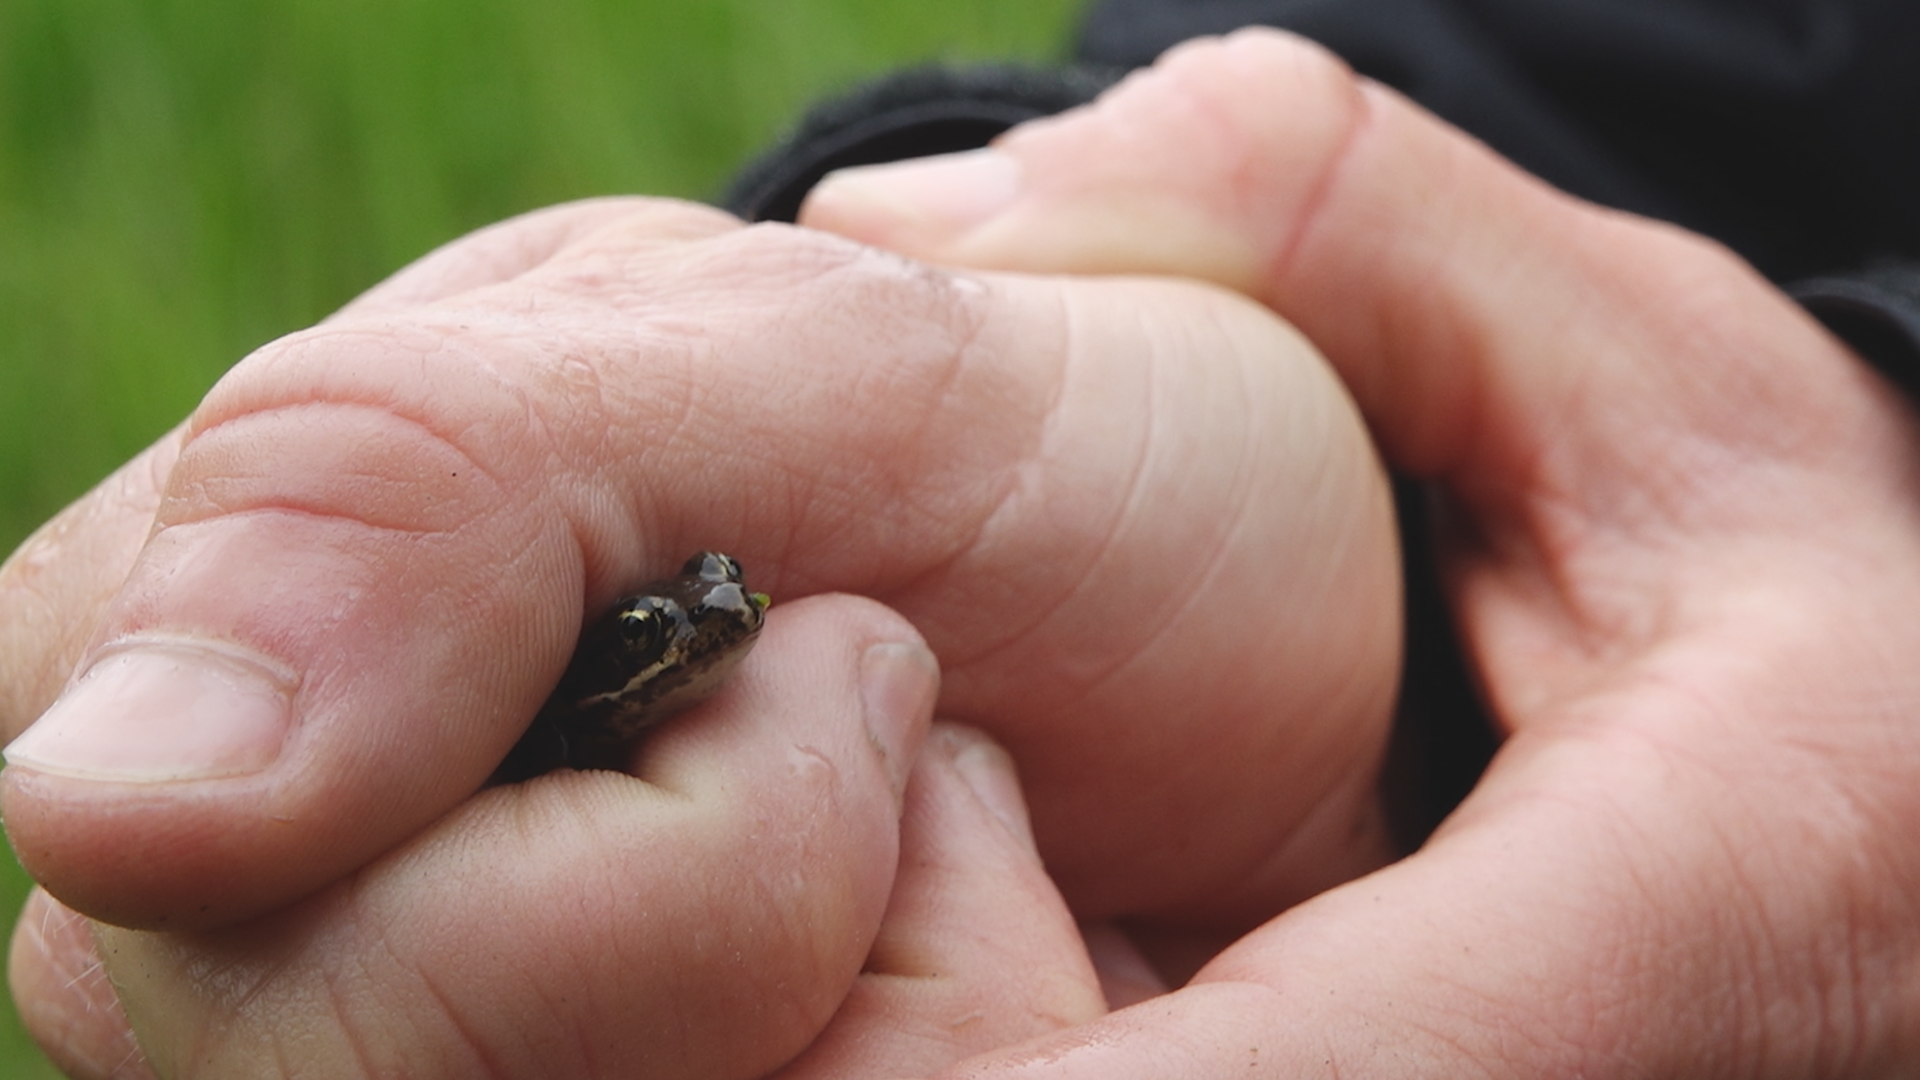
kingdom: Animalia
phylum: Chordata
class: Amphibia
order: Anura
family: Ranidae
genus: Rana
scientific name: Rana luteiventris
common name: Columbia spotted frog
